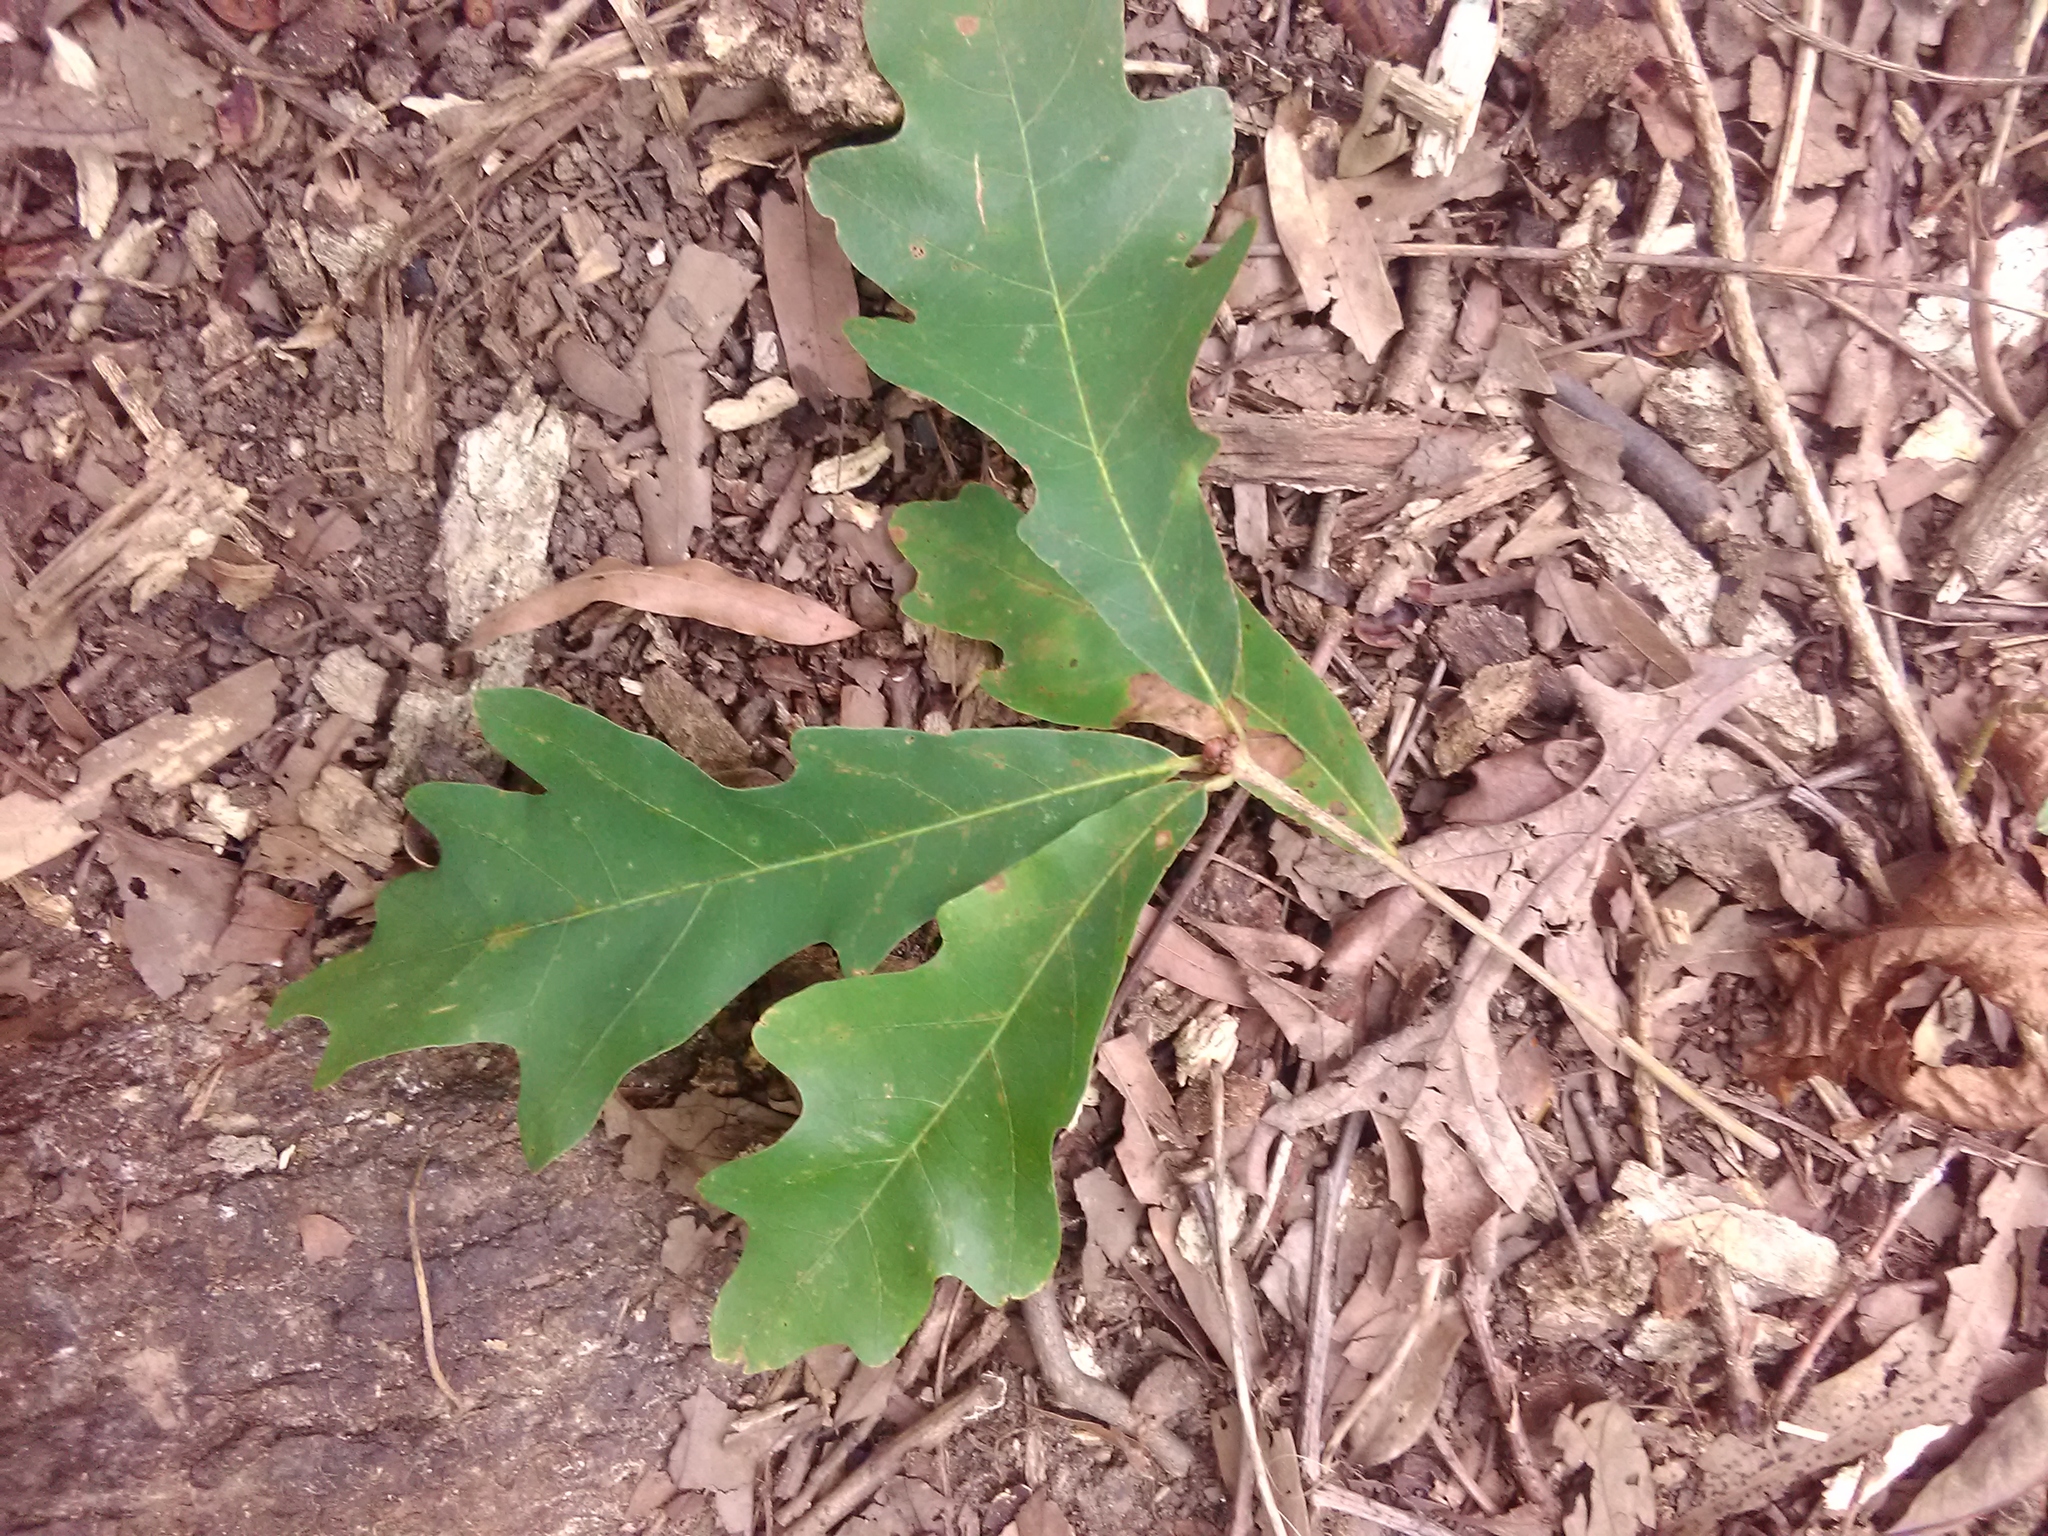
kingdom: Plantae
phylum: Tracheophyta
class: Magnoliopsida
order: Fagales
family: Fagaceae
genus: Quercus
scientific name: Quercus alba
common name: White oak
